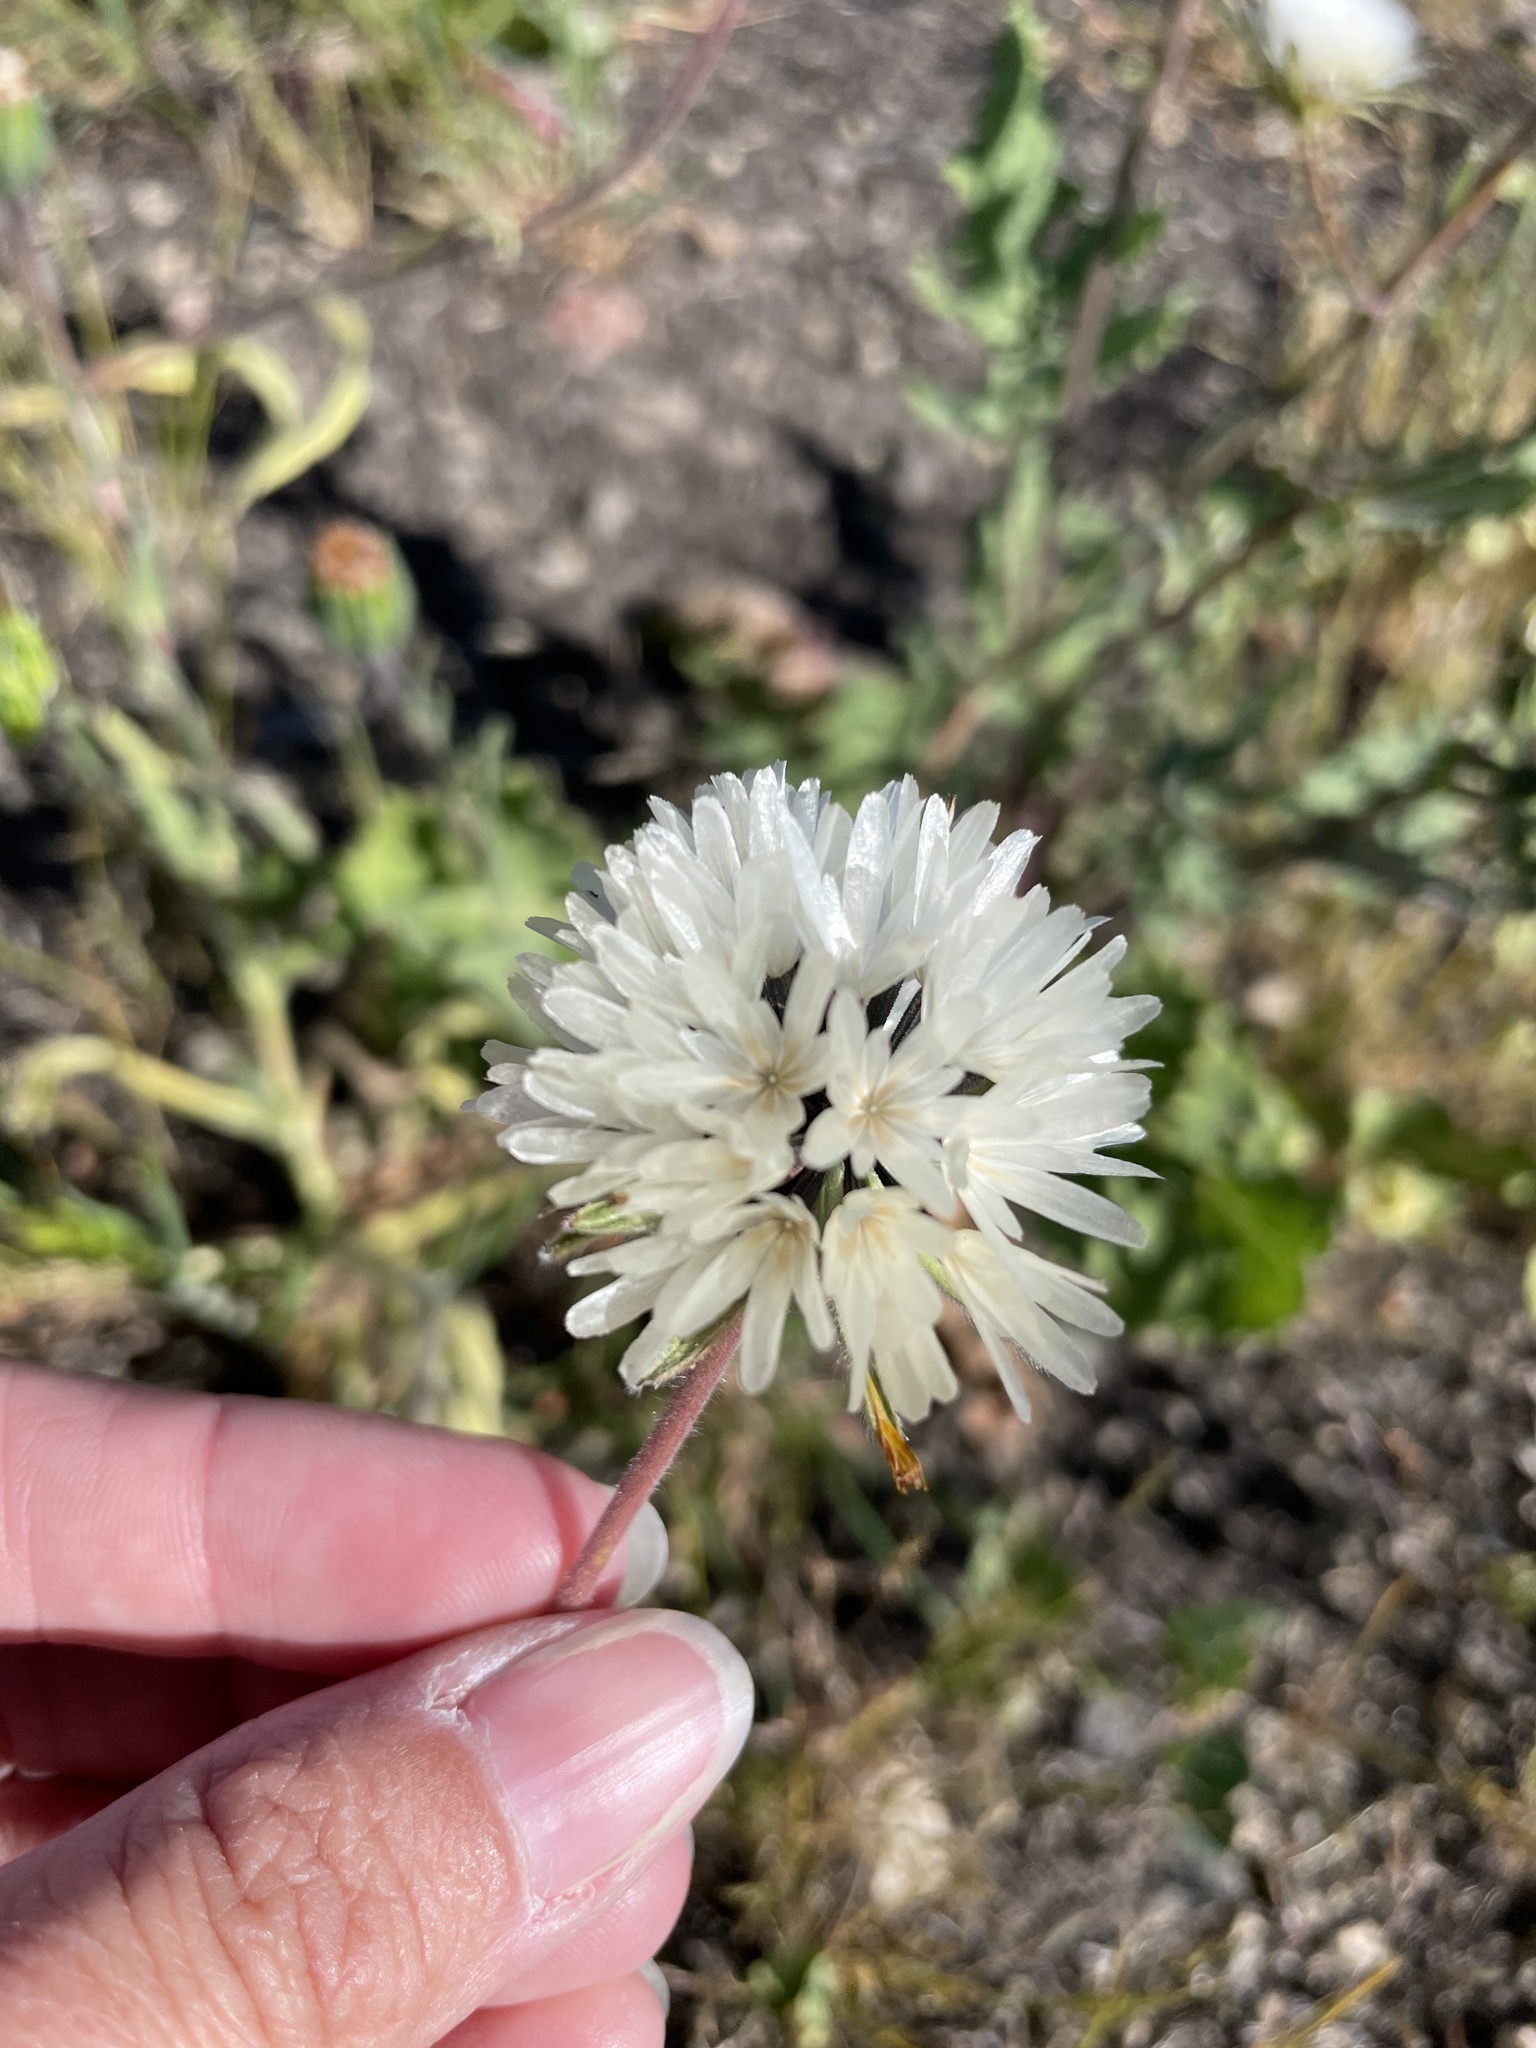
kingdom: Plantae
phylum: Tracheophyta
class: Magnoliopsida
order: Asterales
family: Asteraceae
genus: Achyrachaena
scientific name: Achyrachaena mollis
